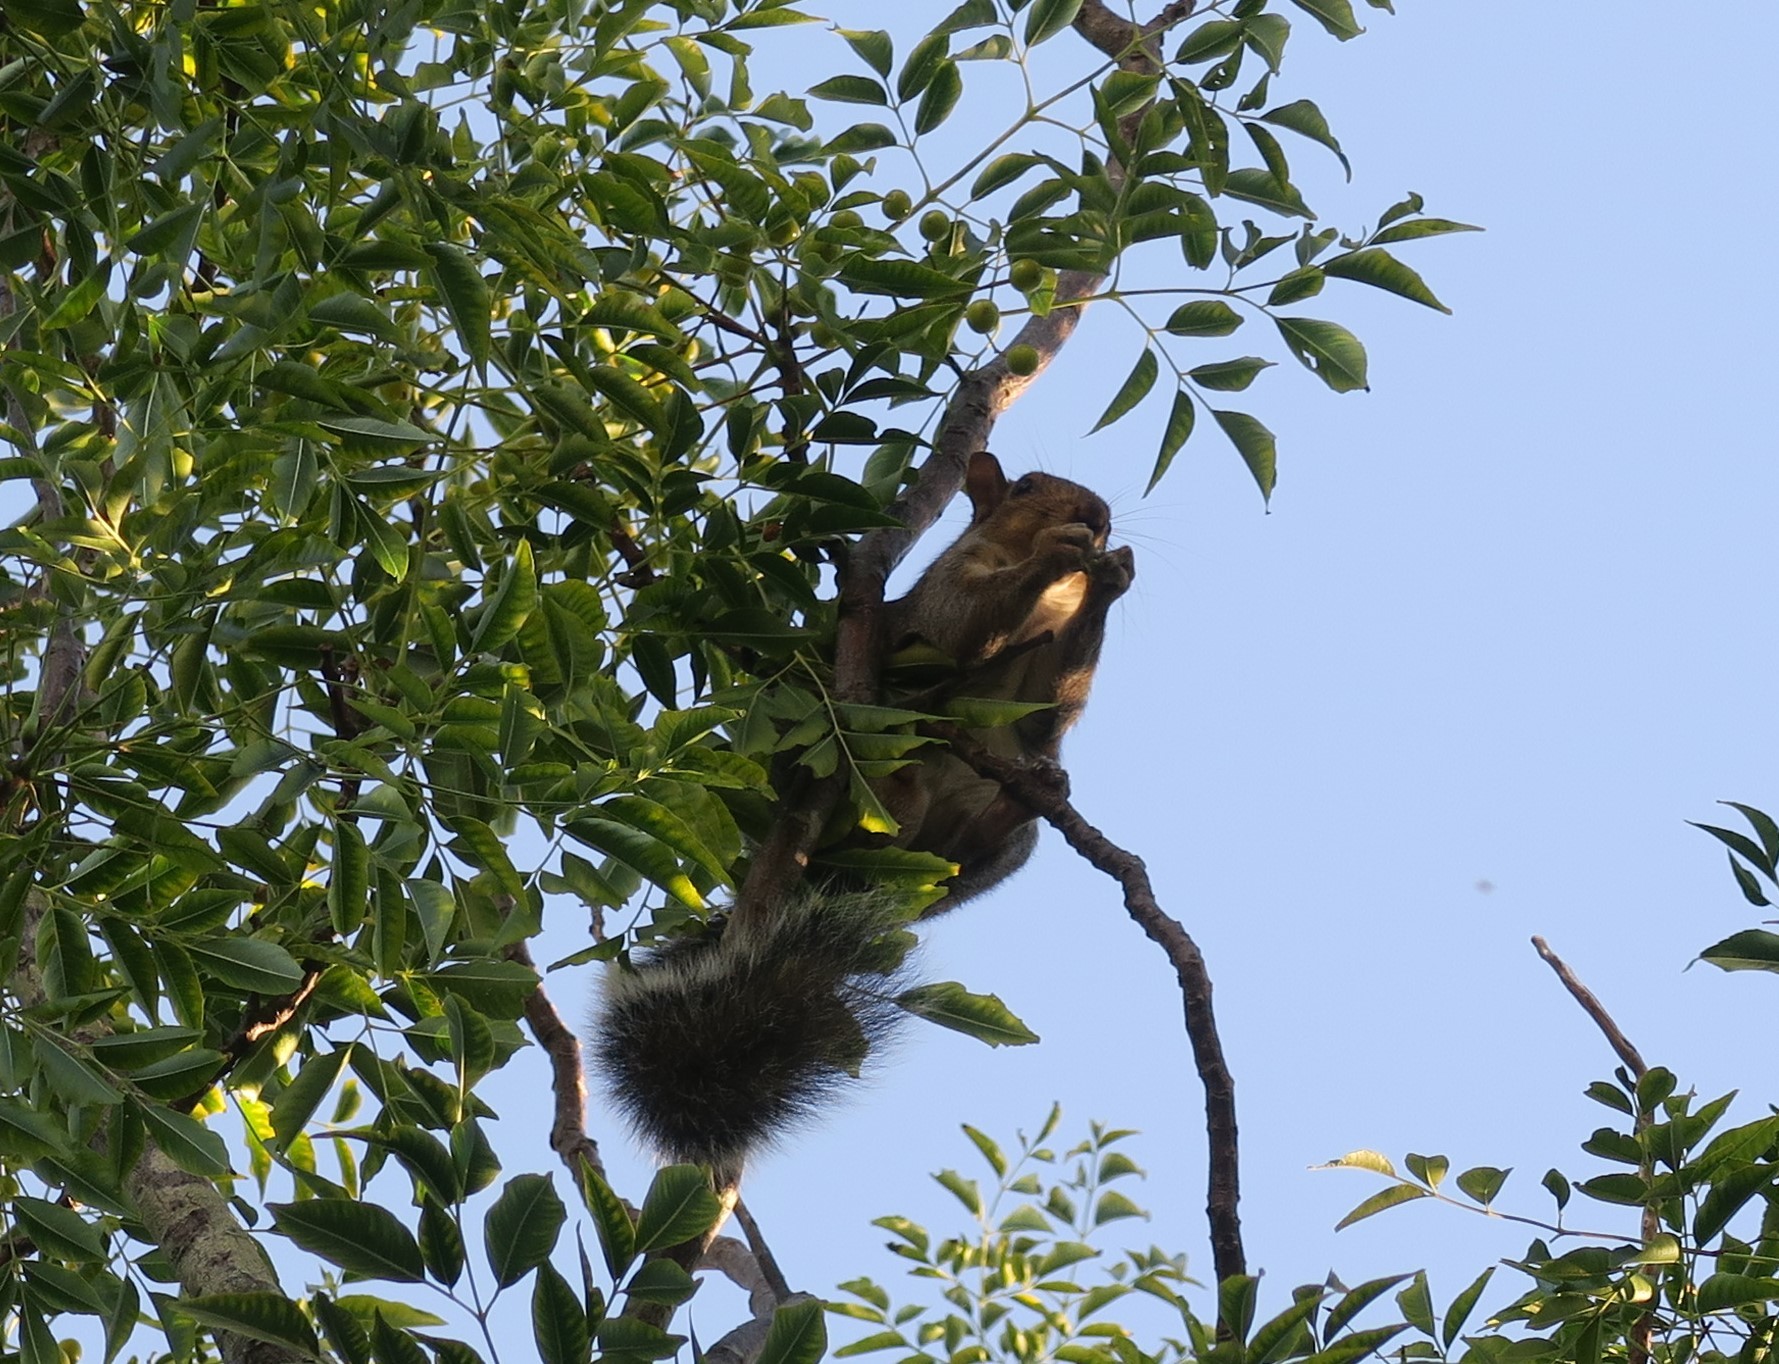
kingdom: Animalia
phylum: Chordata
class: Mammalia
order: Rodentia
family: Sciuridae
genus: Sciurus
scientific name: Sciurus carolinensis
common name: Eastern gray squirrel
